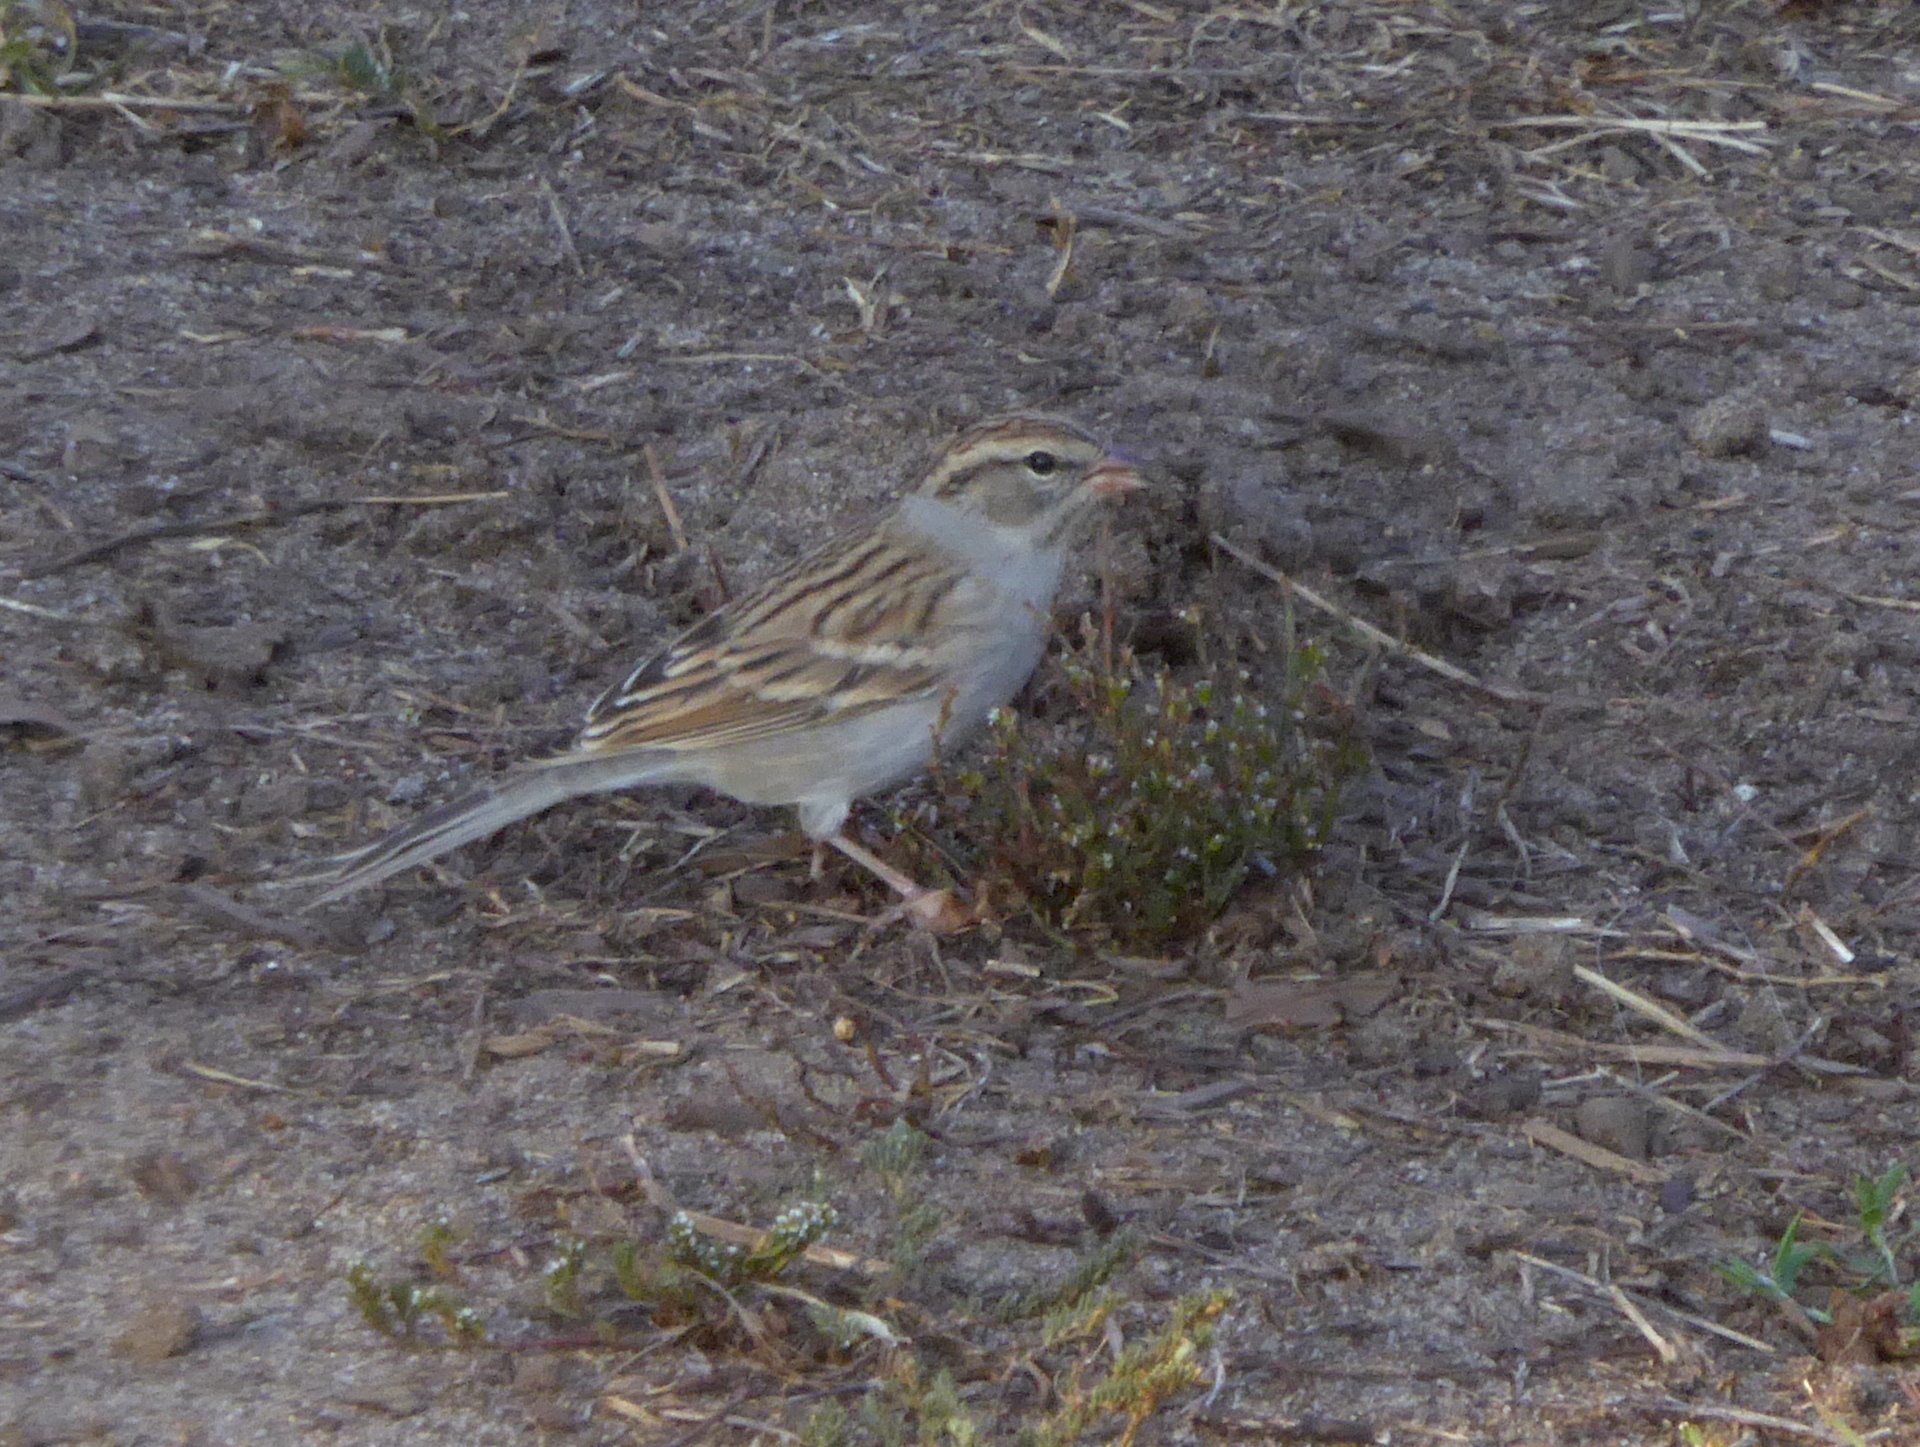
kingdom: Animalia
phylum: Chordata
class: Aves
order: Passeriformes
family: Passerellidae
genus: Spizella
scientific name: Spizella passerina
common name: Chipping sparrow
